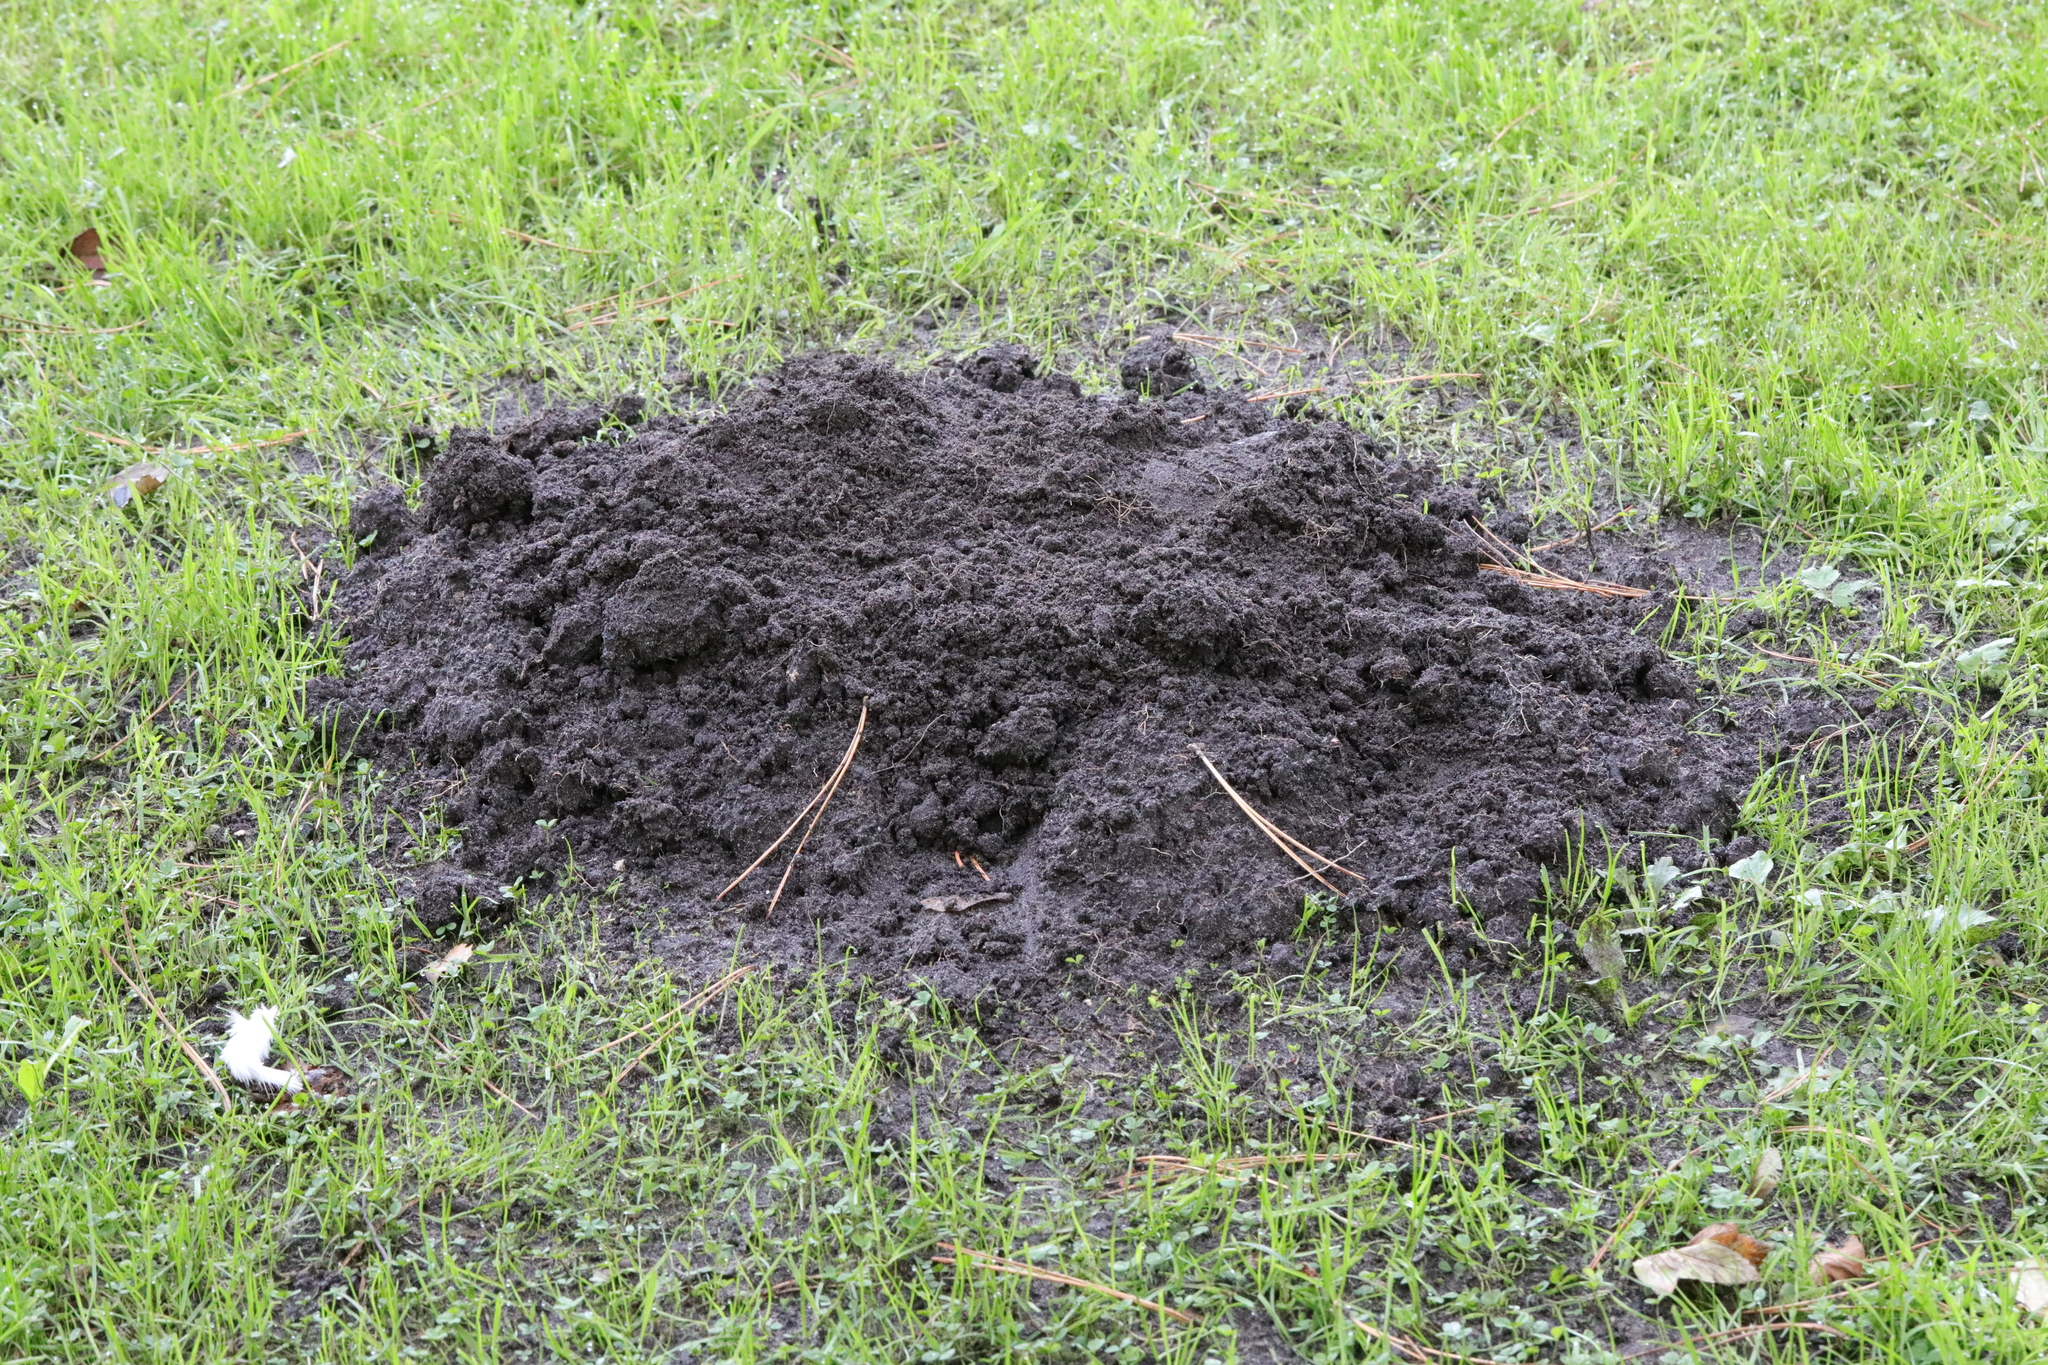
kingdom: Animalia
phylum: Chordata
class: Mammalia
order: Soricomorpha
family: Talpidae
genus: Talpa
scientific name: Talpa europaea
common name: European mole
